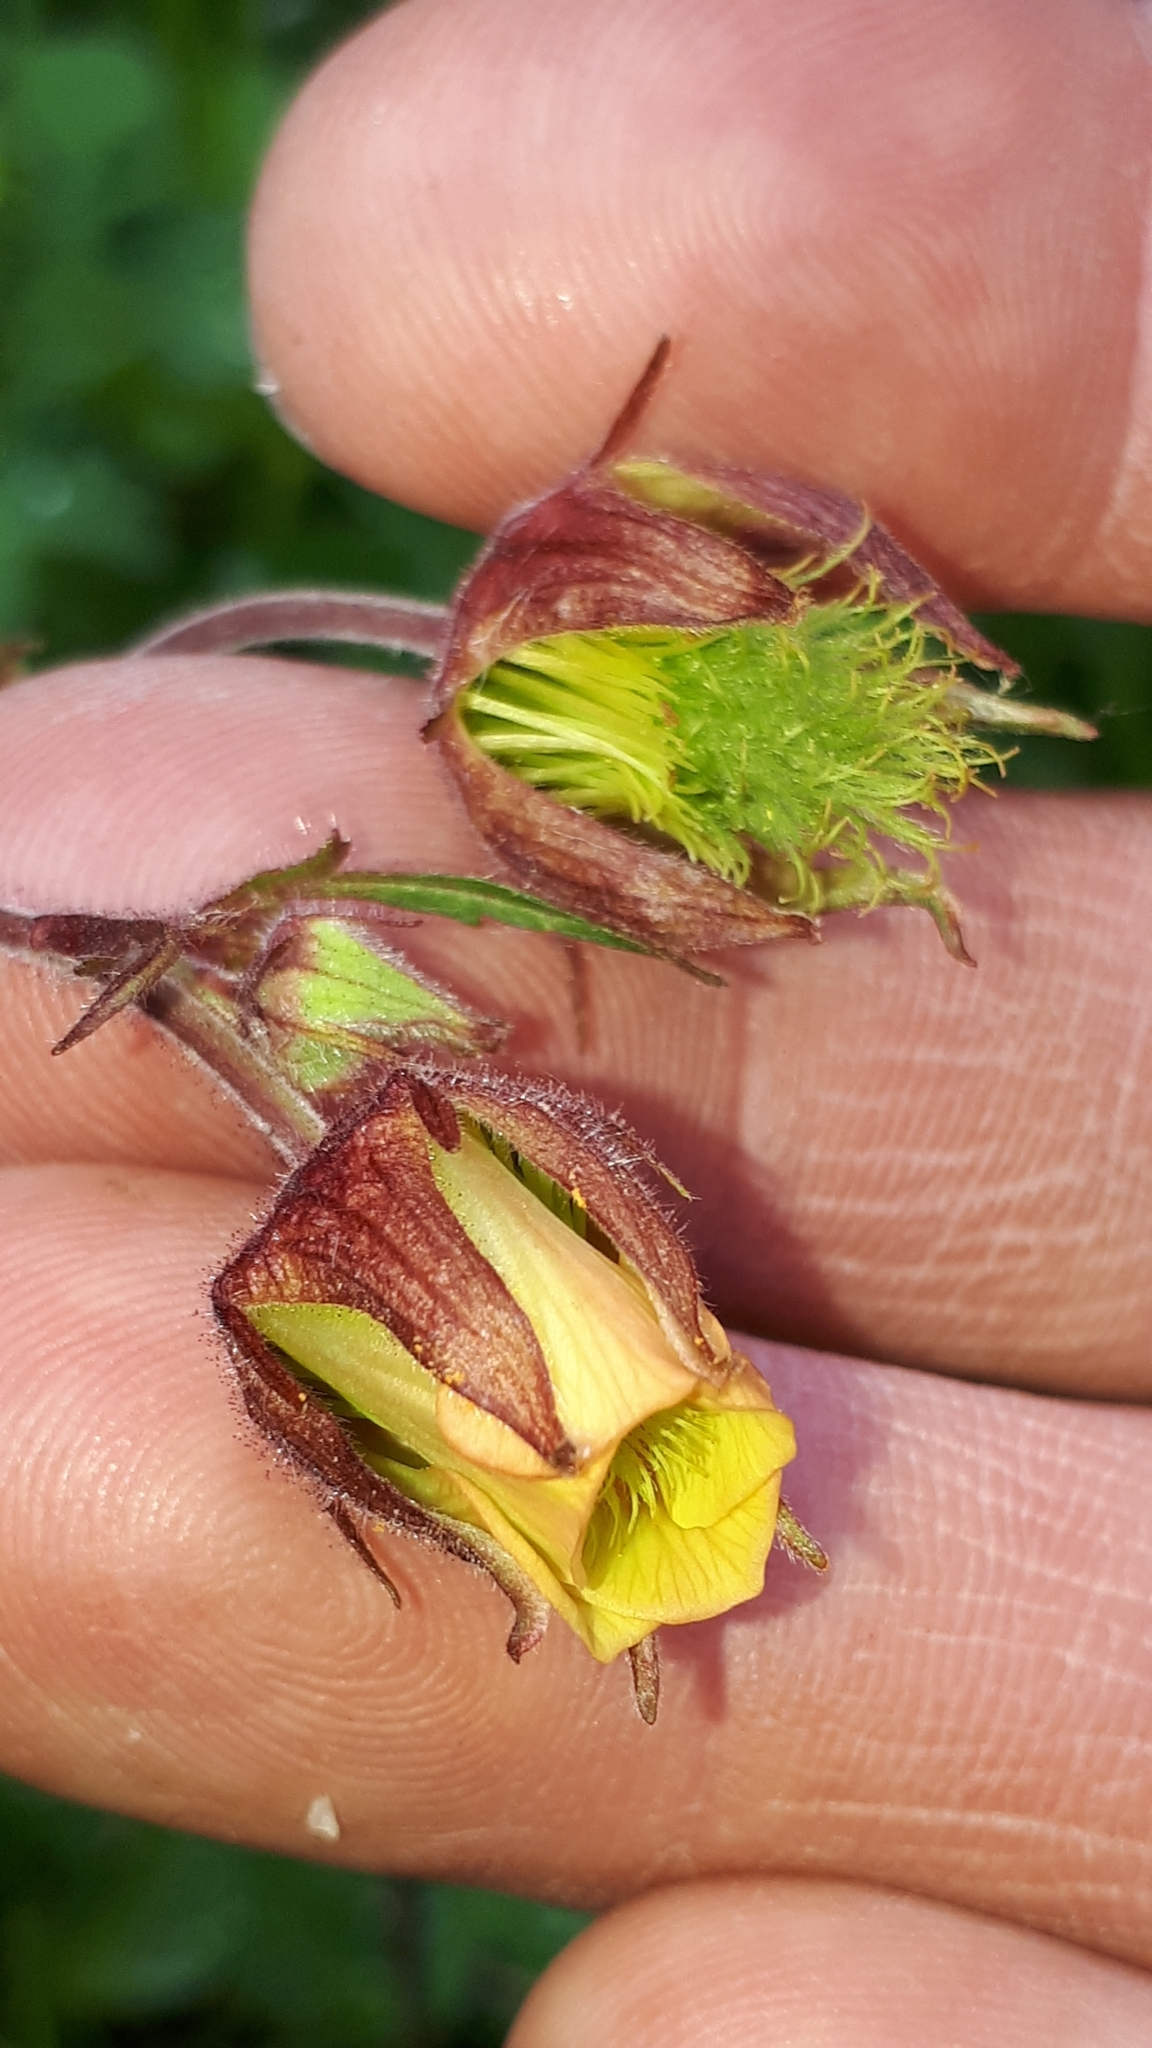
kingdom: Plantae
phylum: Tracheophyta
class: Magnoliopsida
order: Rosales
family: Rosaceae
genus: Geum
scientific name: Geum rivale
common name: Water avens
